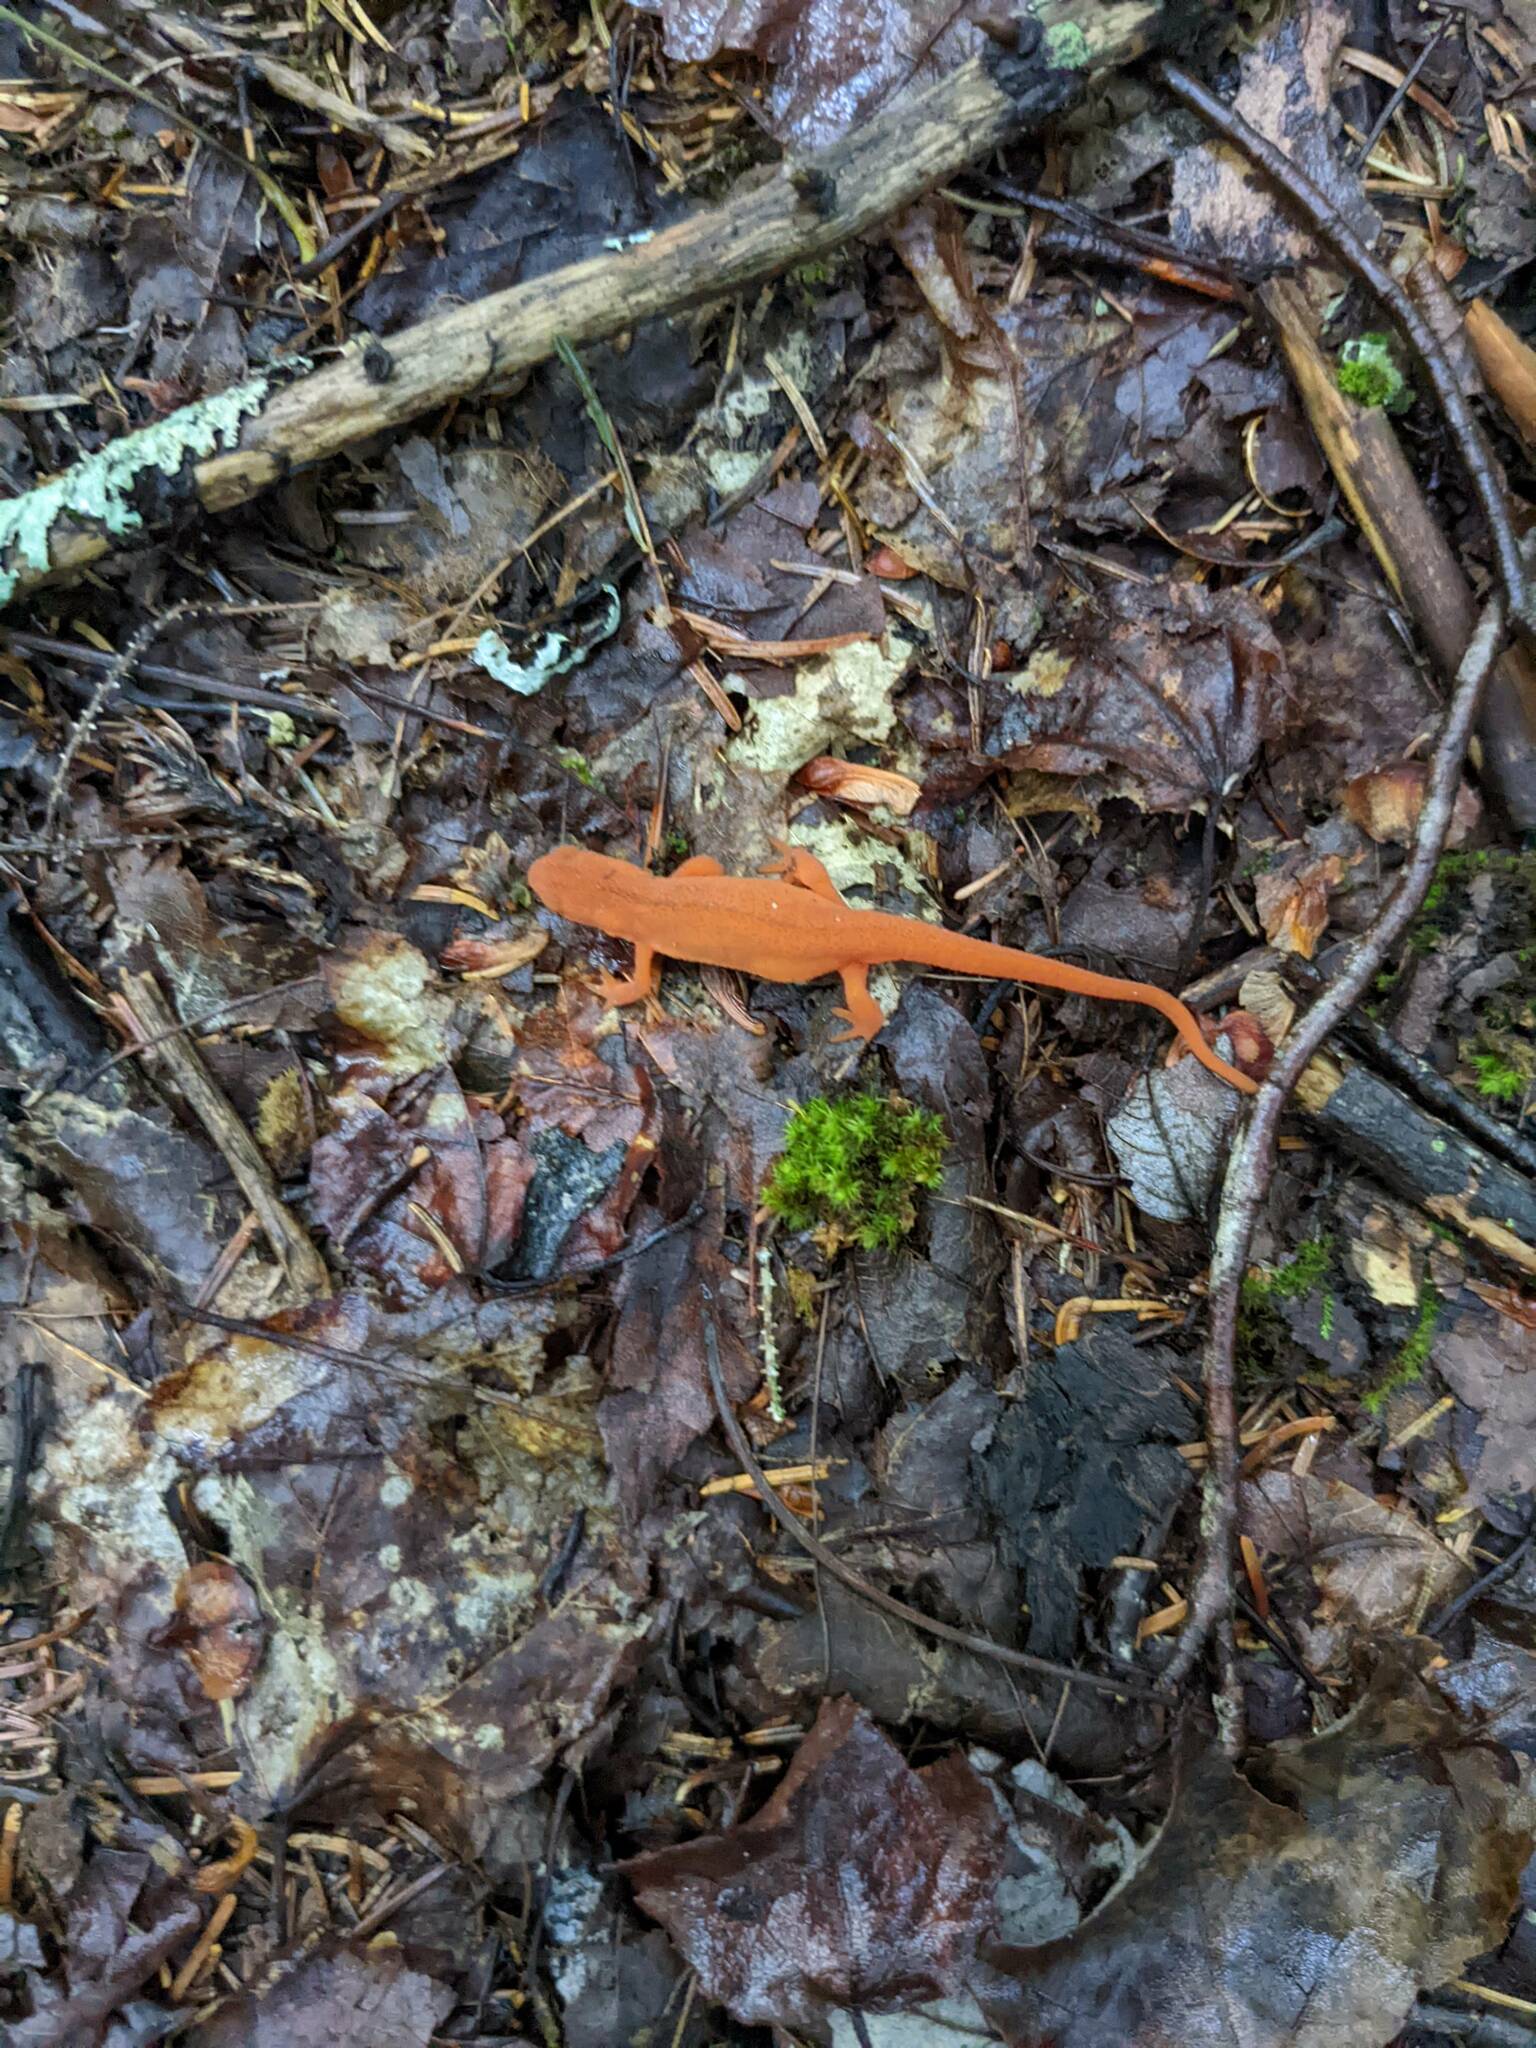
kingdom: Animalia
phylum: Chordata
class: Amphibia
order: Caudata
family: Salamandridae
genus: Notophthalmus
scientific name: Notophthalmus viridescens
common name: Eastern newt
